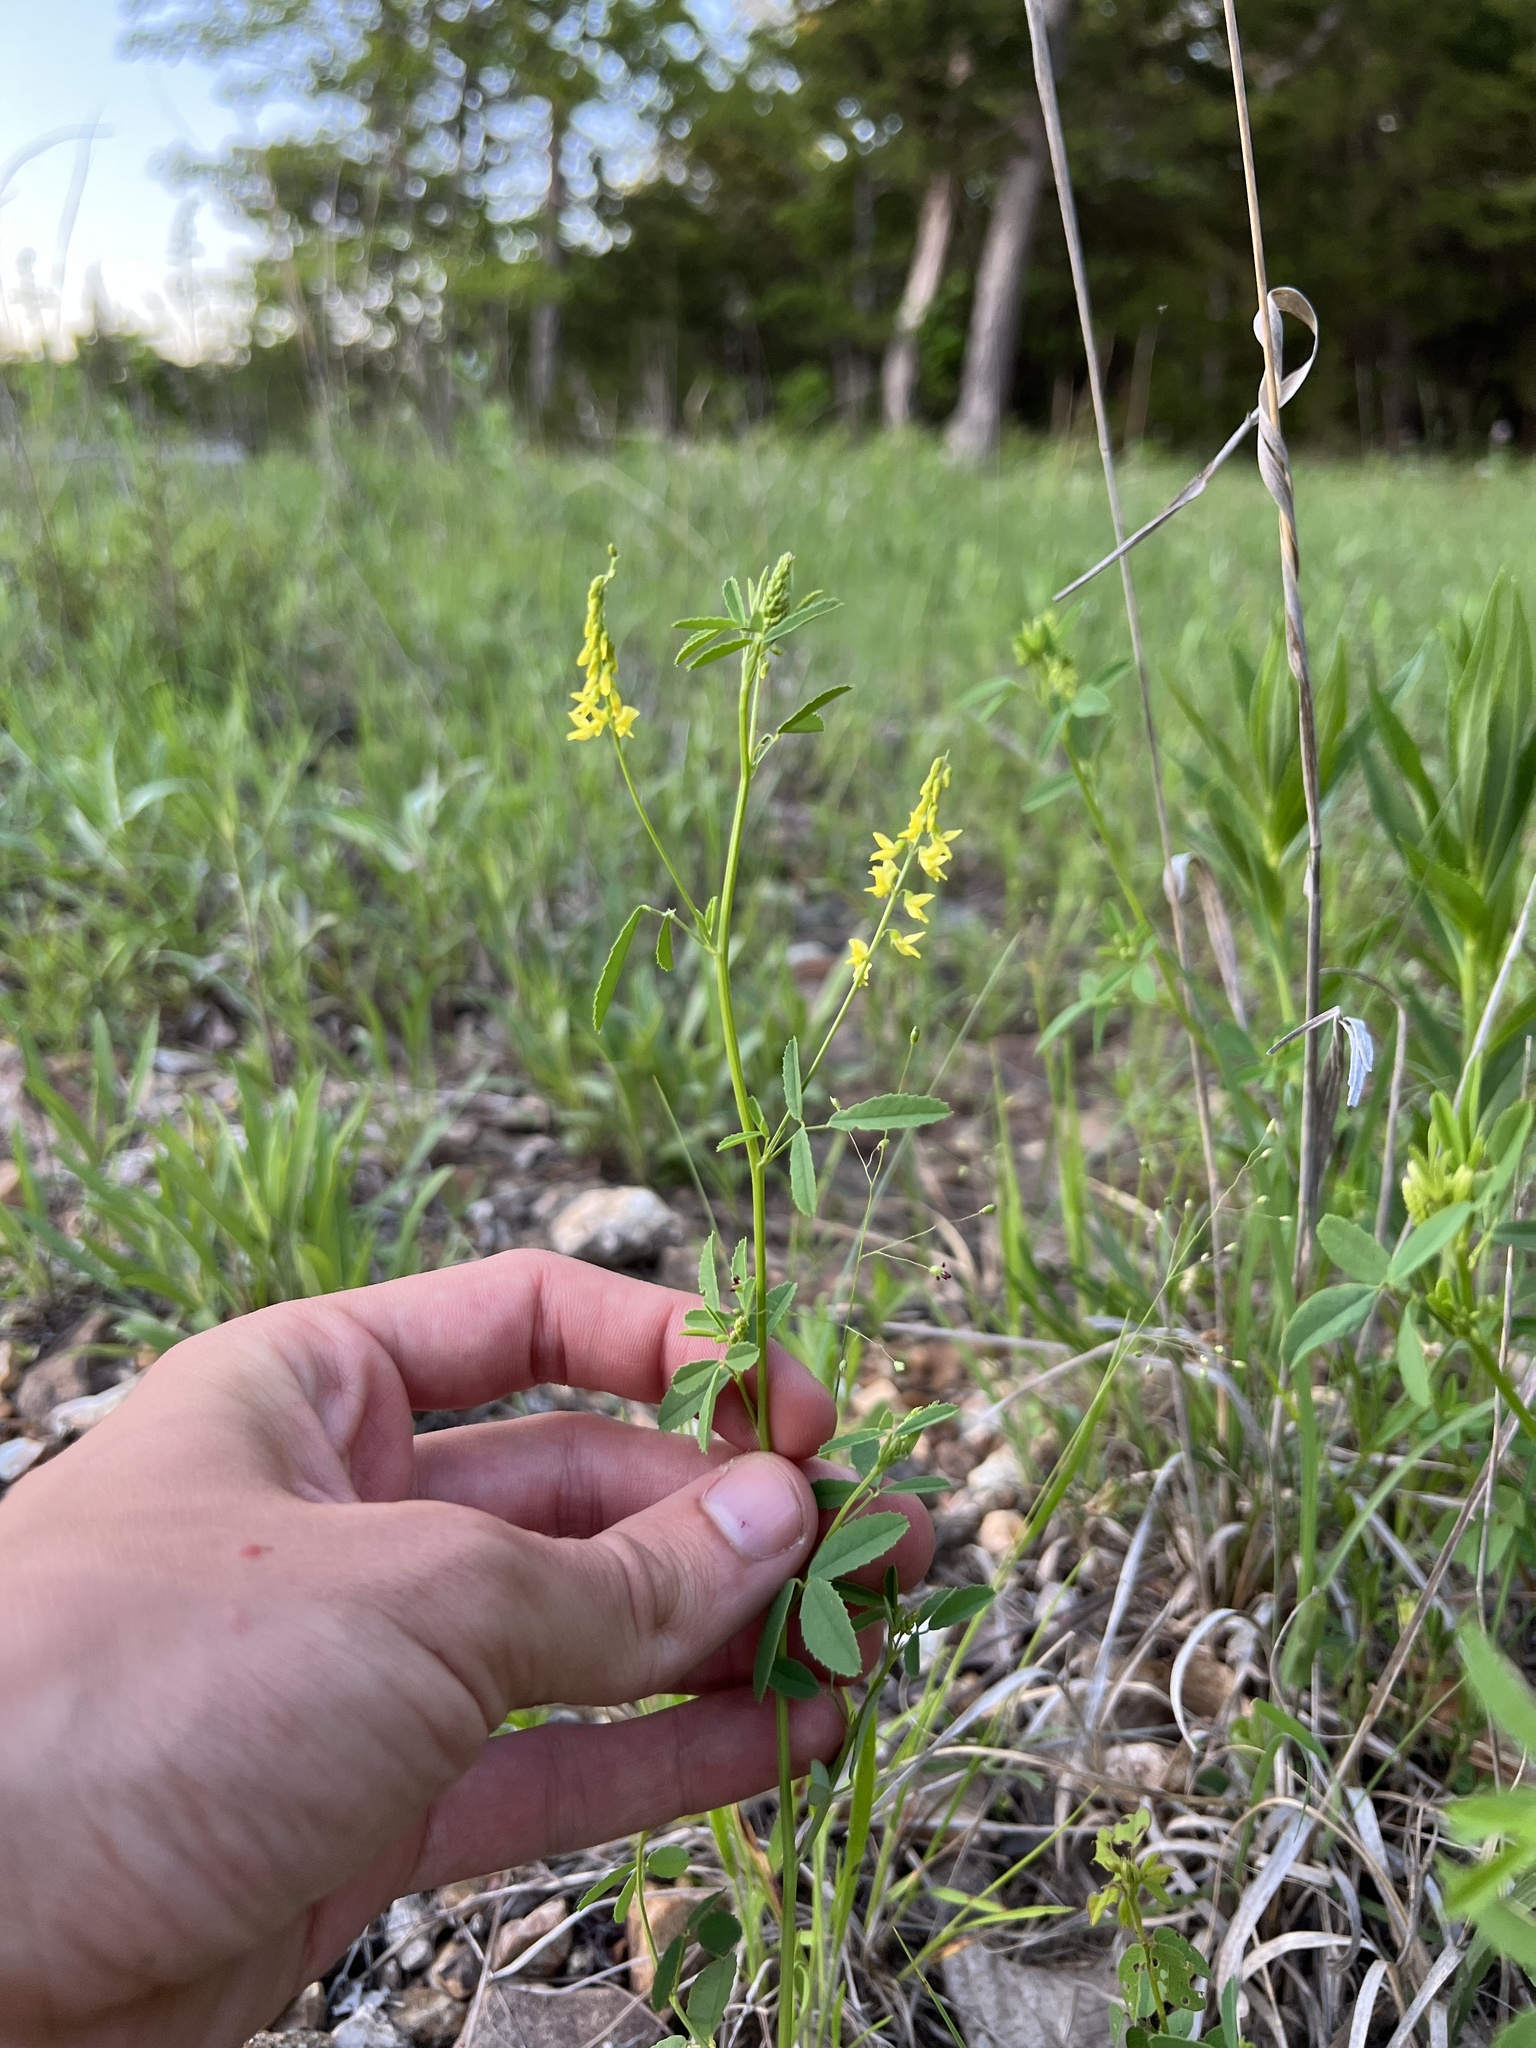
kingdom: Plantae
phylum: Tracheophyta
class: Magnoliopsida
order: Fabales
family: Fabaceae
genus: Melilotus
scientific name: Melilotus officinalis
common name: Sweetclover
